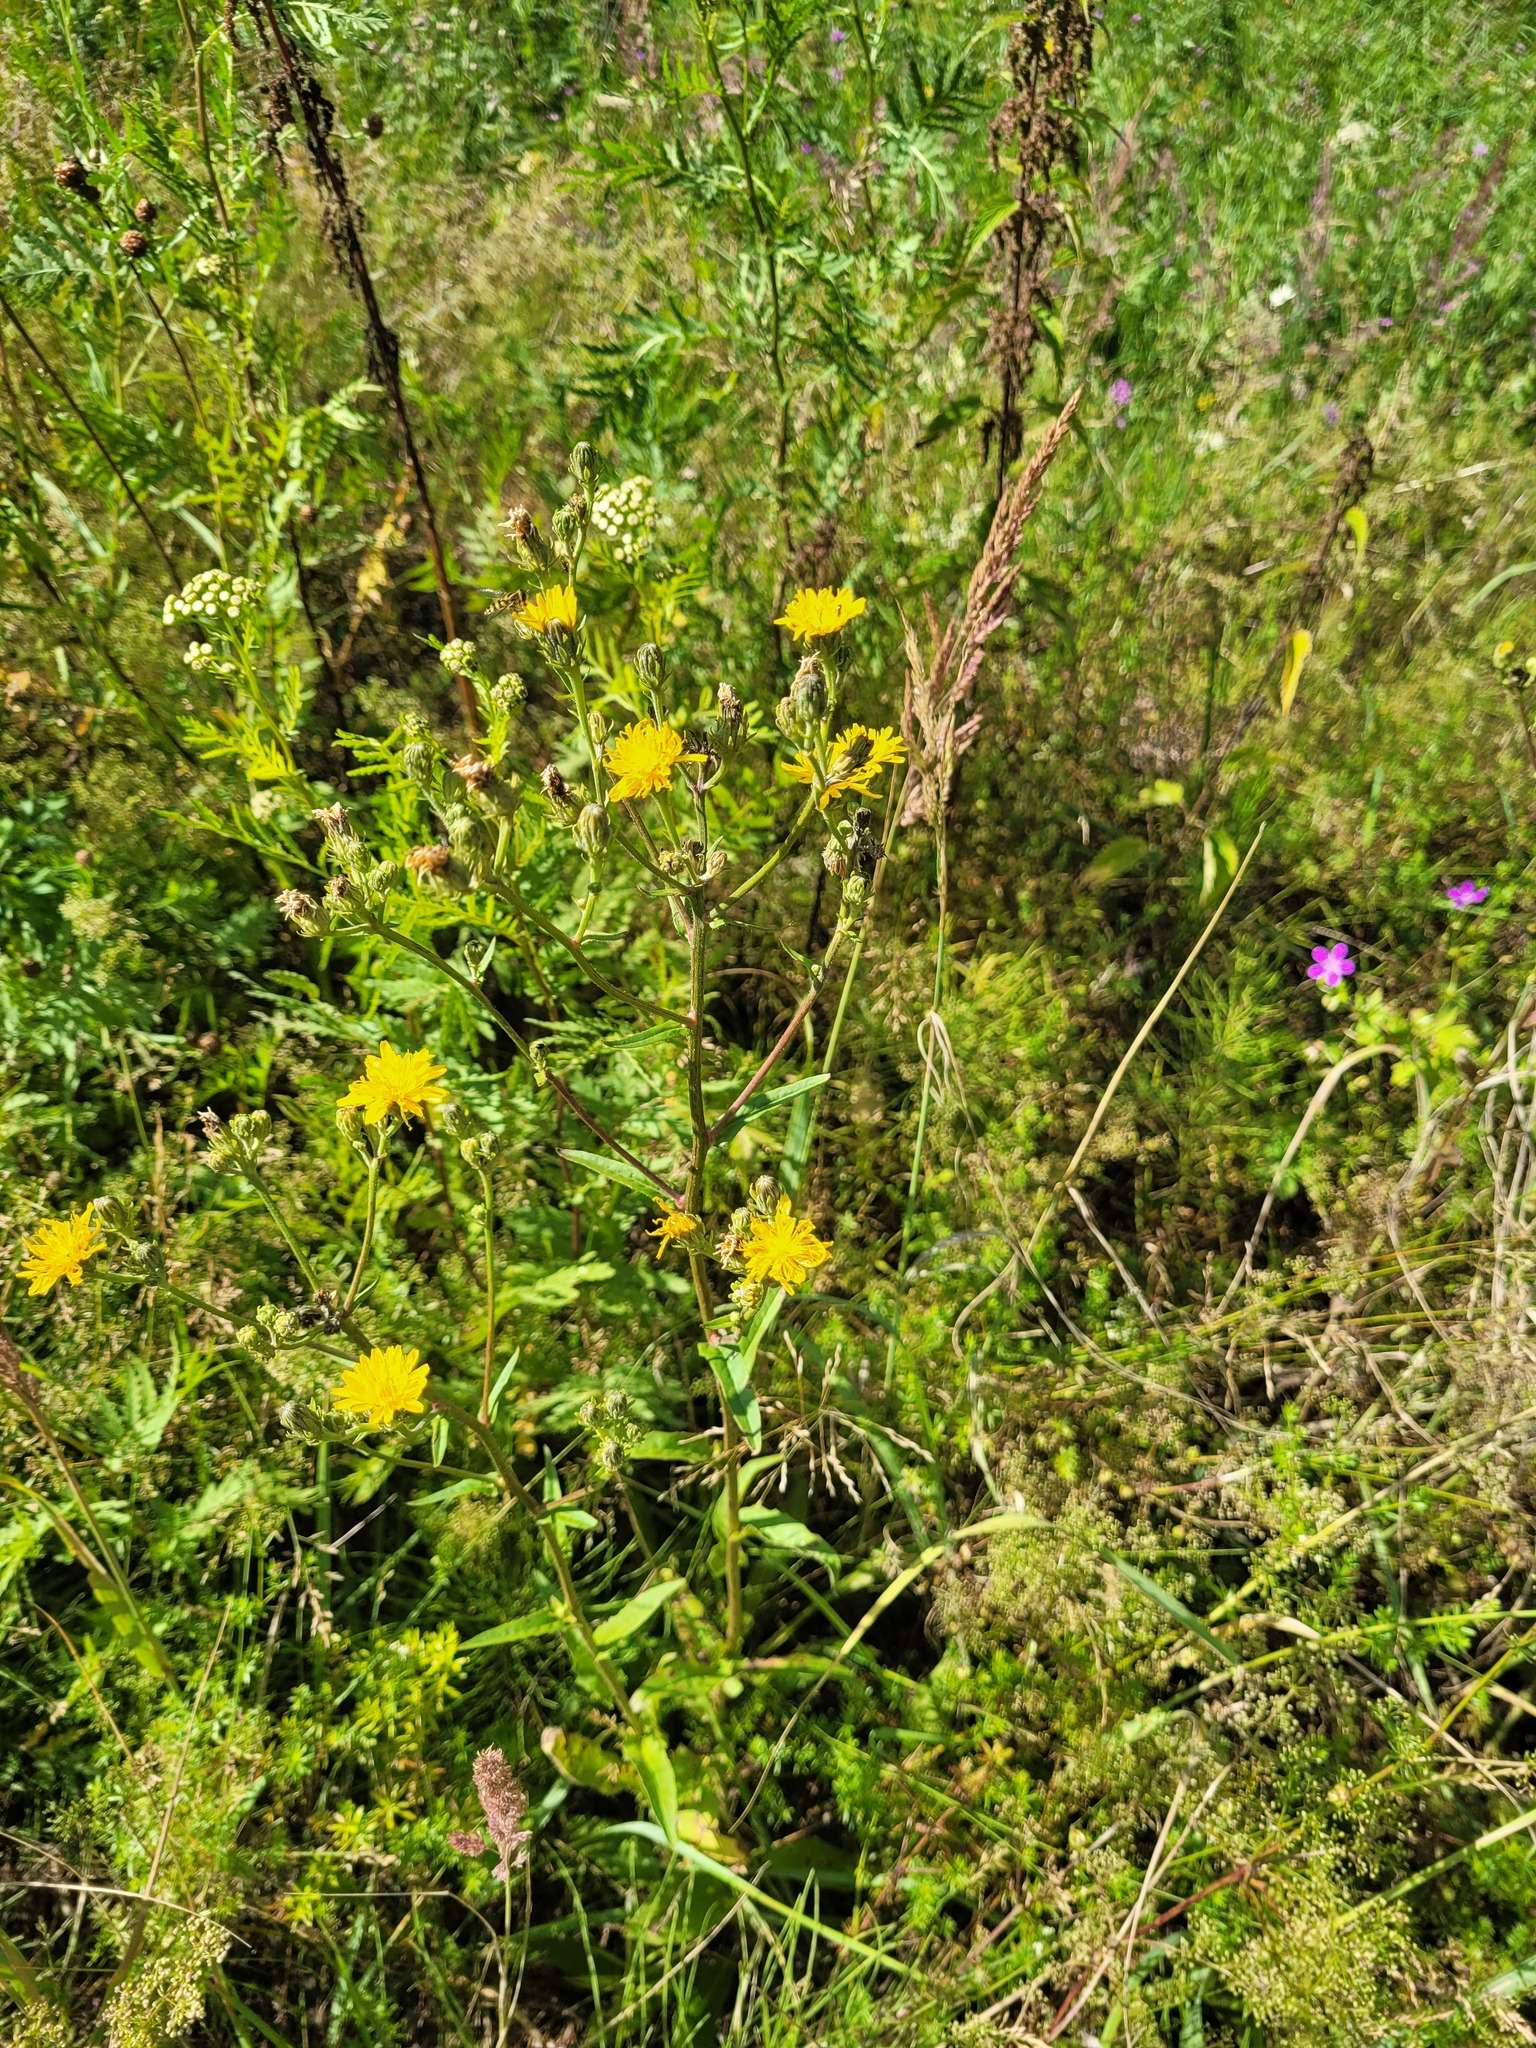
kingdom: Plantae
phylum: Tracheophyta
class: Magnoliopsida
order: Asterales
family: Asteraceae
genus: Picris
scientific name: Picris hieracioides
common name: Hawkweed oxtongue
